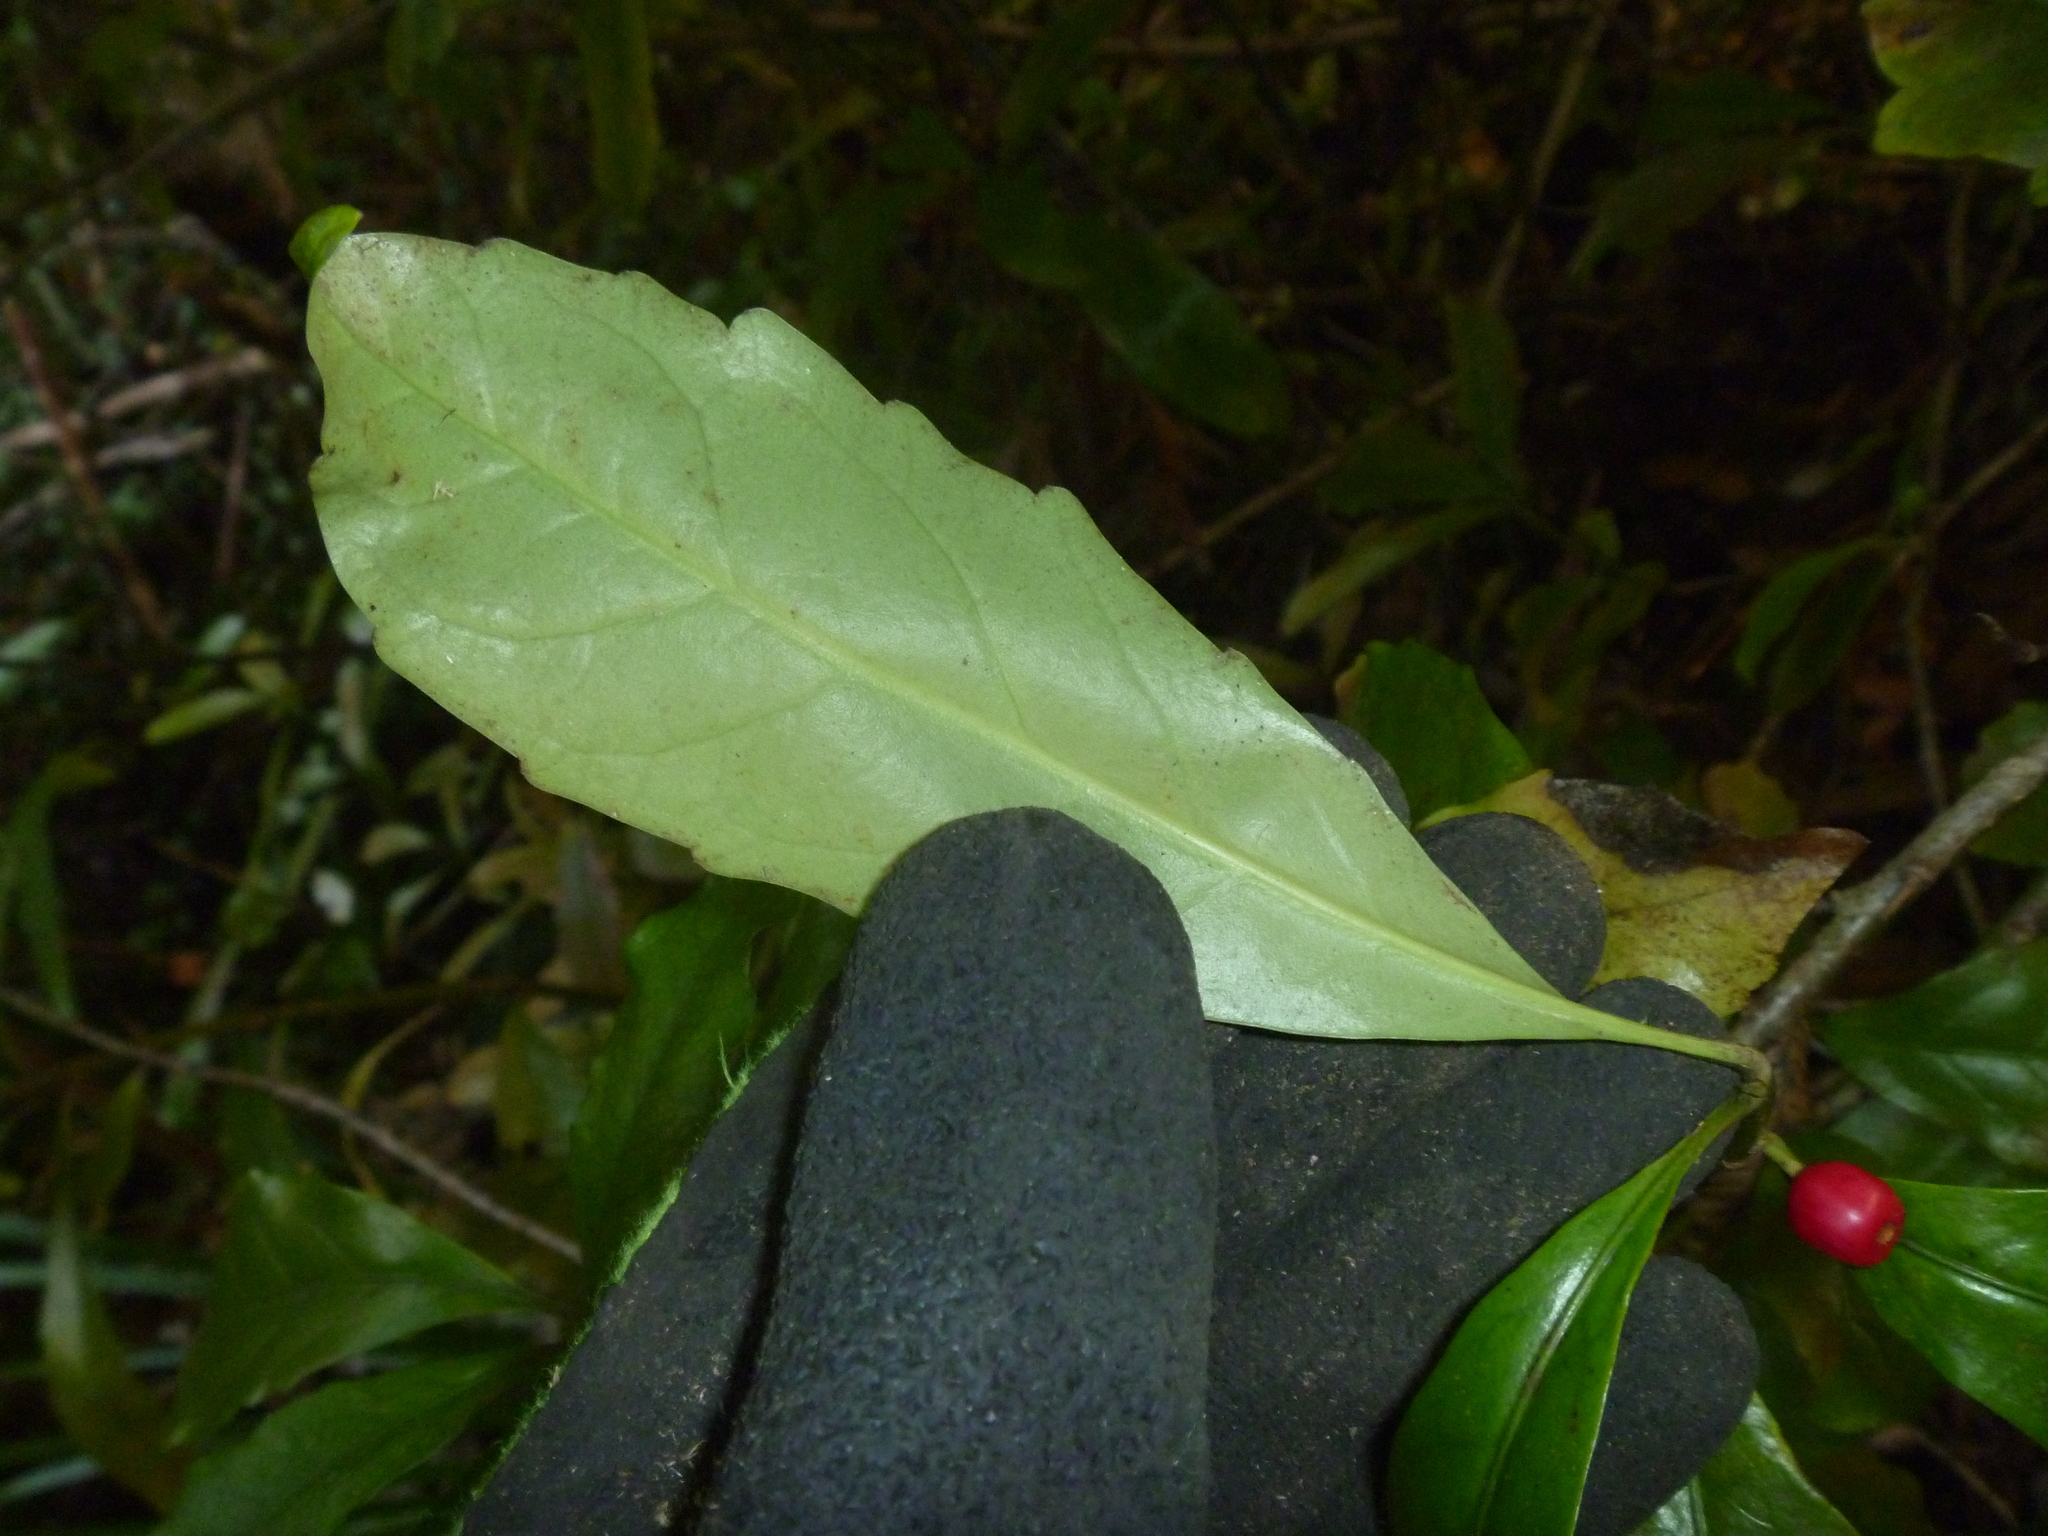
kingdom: Plantae
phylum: Tracheophyta
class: Magnoliopsida
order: Asterales
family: Alseuosmiaceae
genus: Alseuosmia
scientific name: Alseuosmia macrophylla
